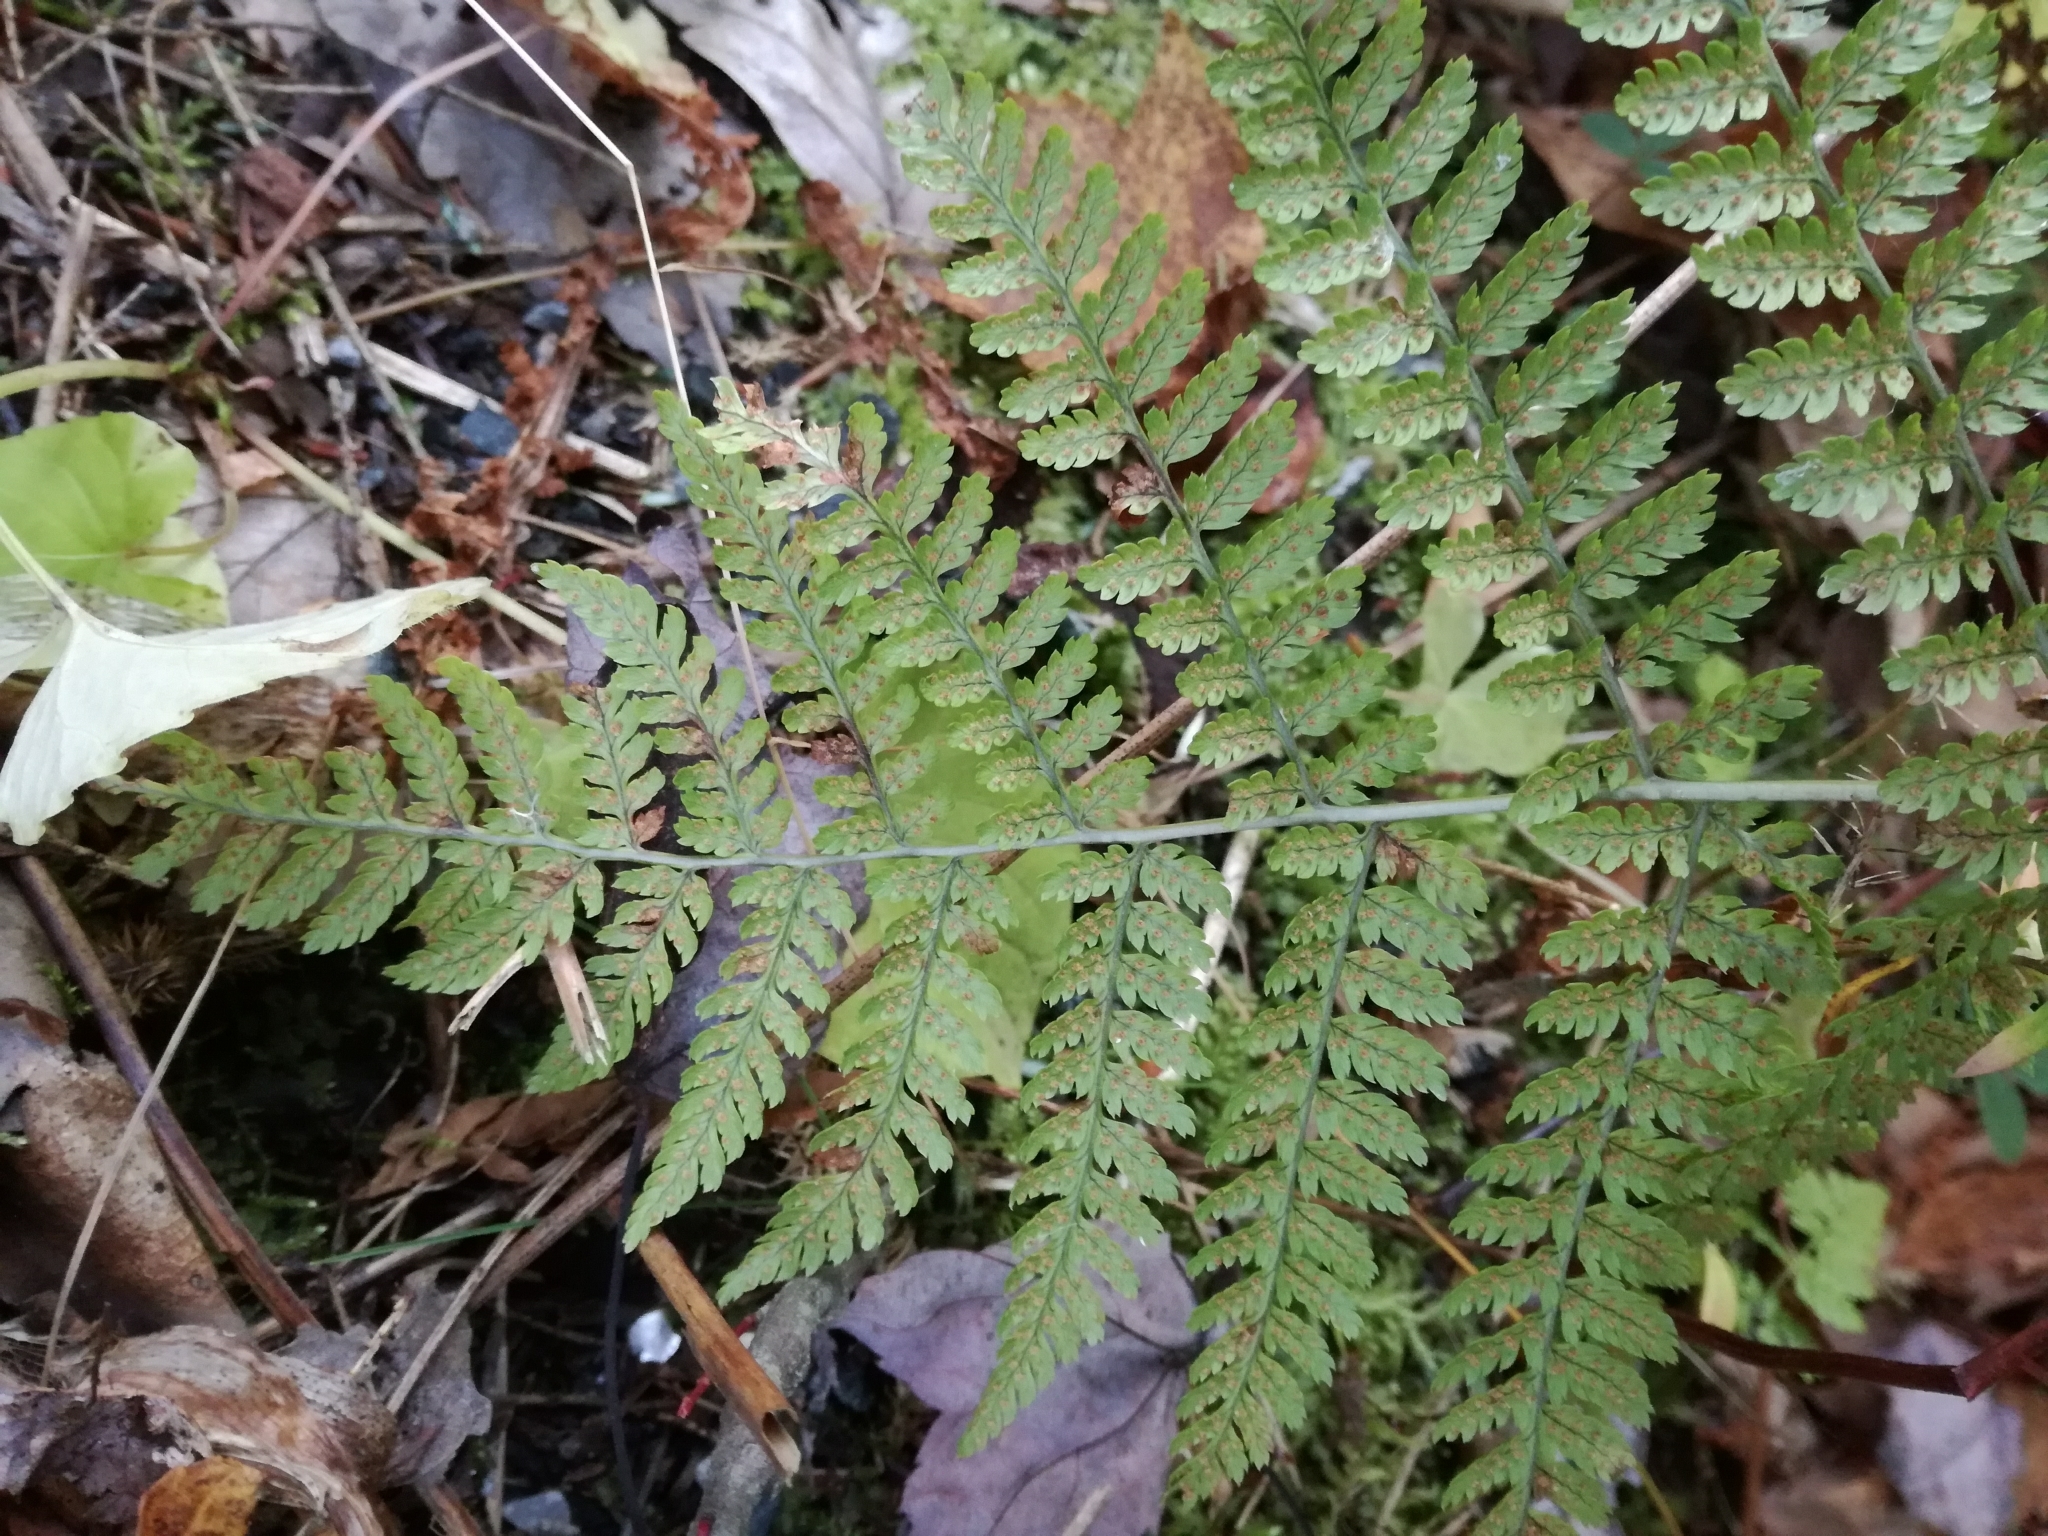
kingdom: Plantae
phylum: Tracheophyta
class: Polypodiopsida
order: Polypodiales
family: Dryopteridaceae
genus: Dryopteris
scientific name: Dryopteris intermedia
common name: Evergreen wood fern
